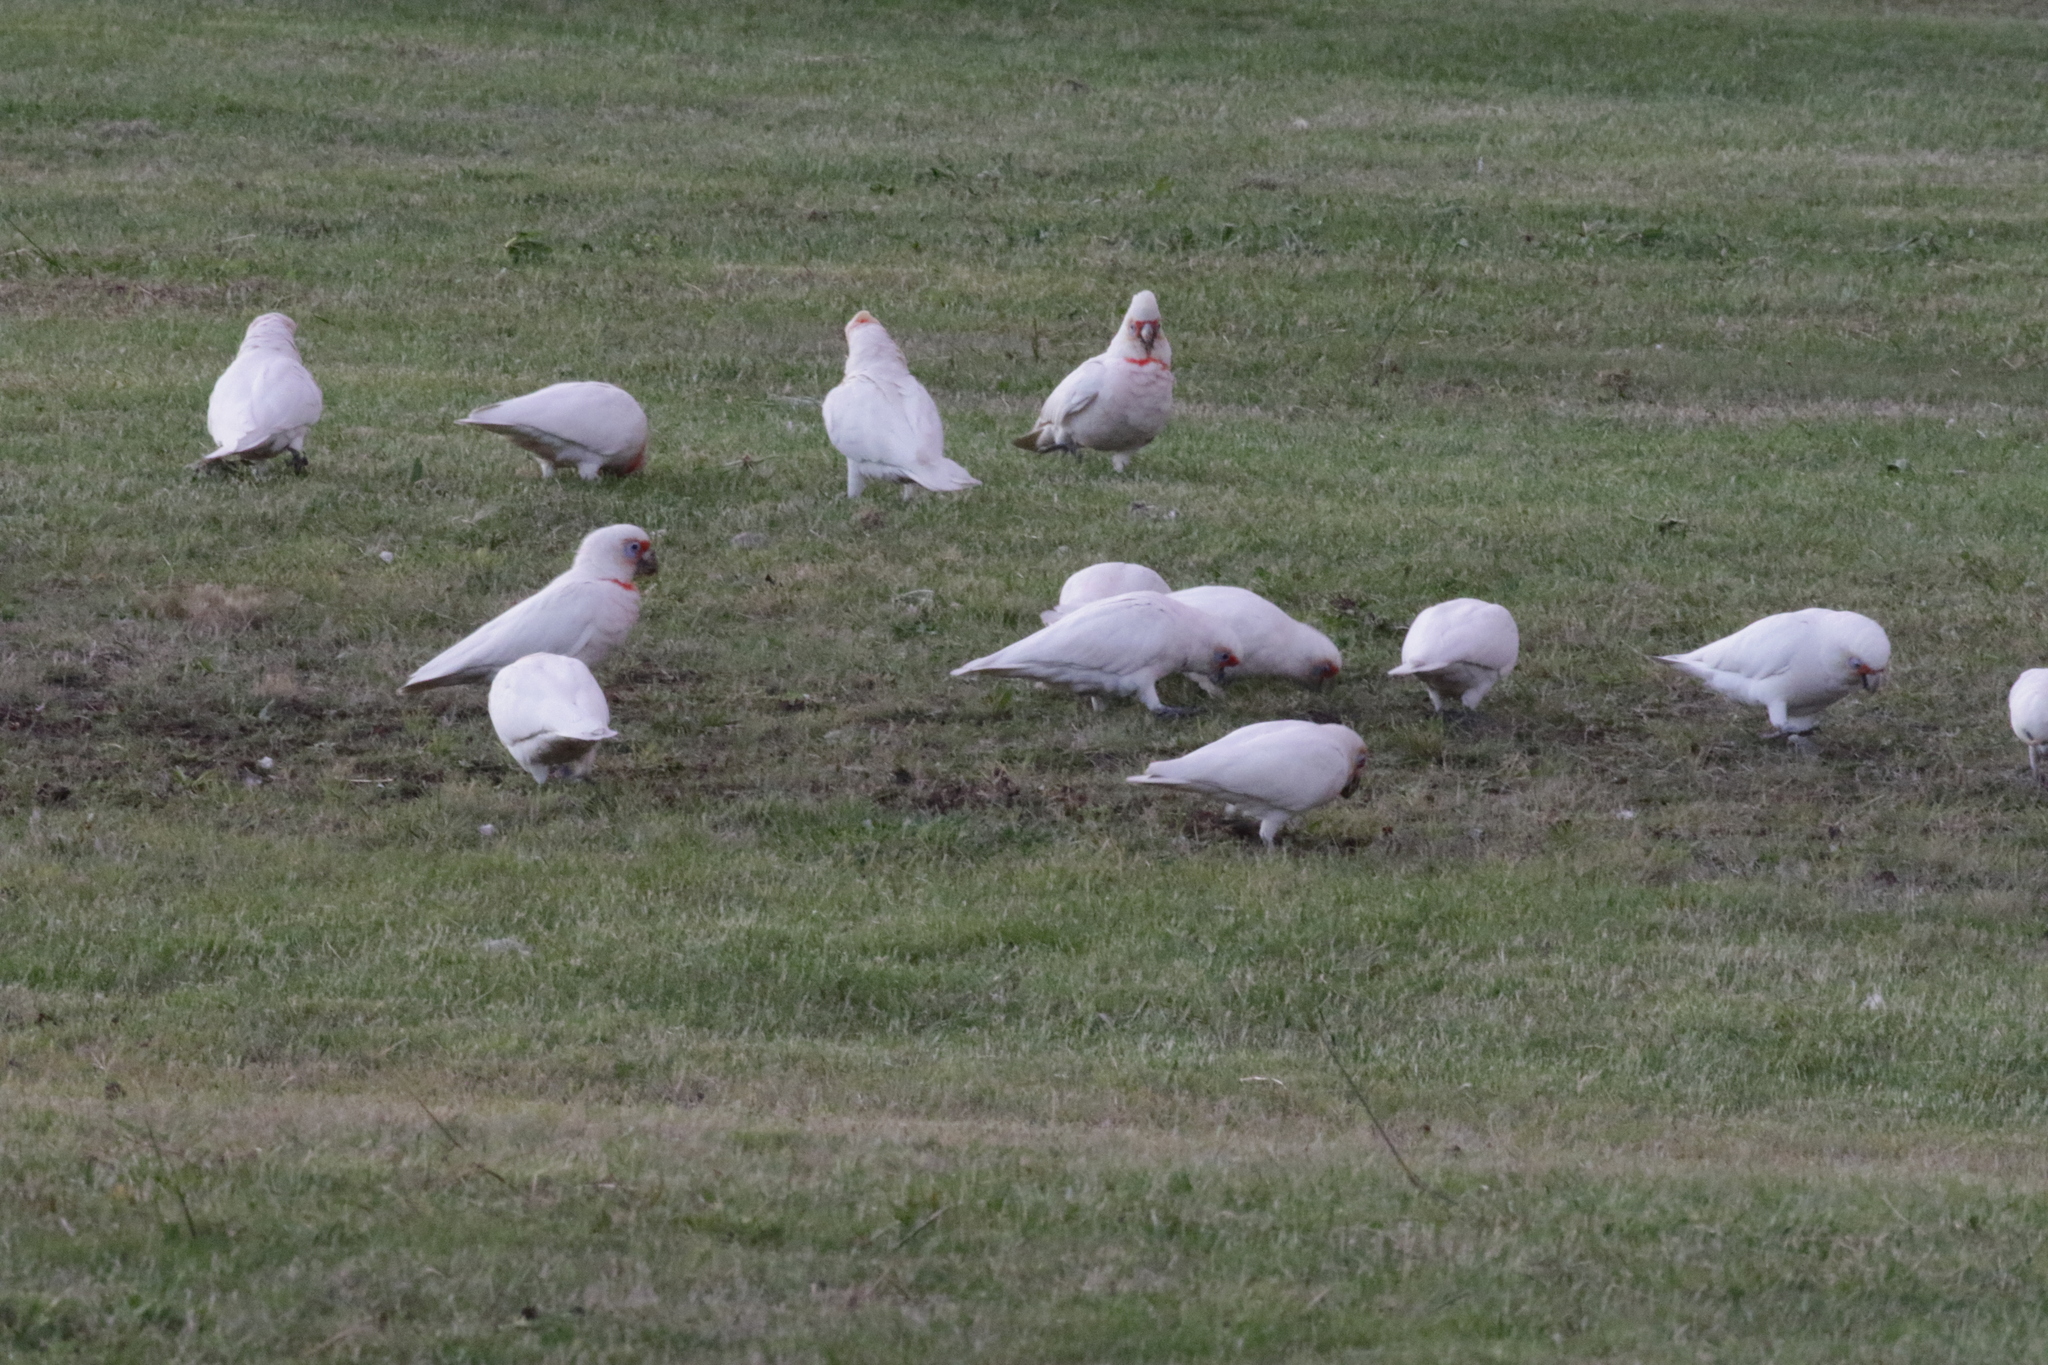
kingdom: Animalia
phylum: Chordata
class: Aves
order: Psittaciformes
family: Psittacidae
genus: Cacatua
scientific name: Cacatua tenuirostris
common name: Long-billed corella
